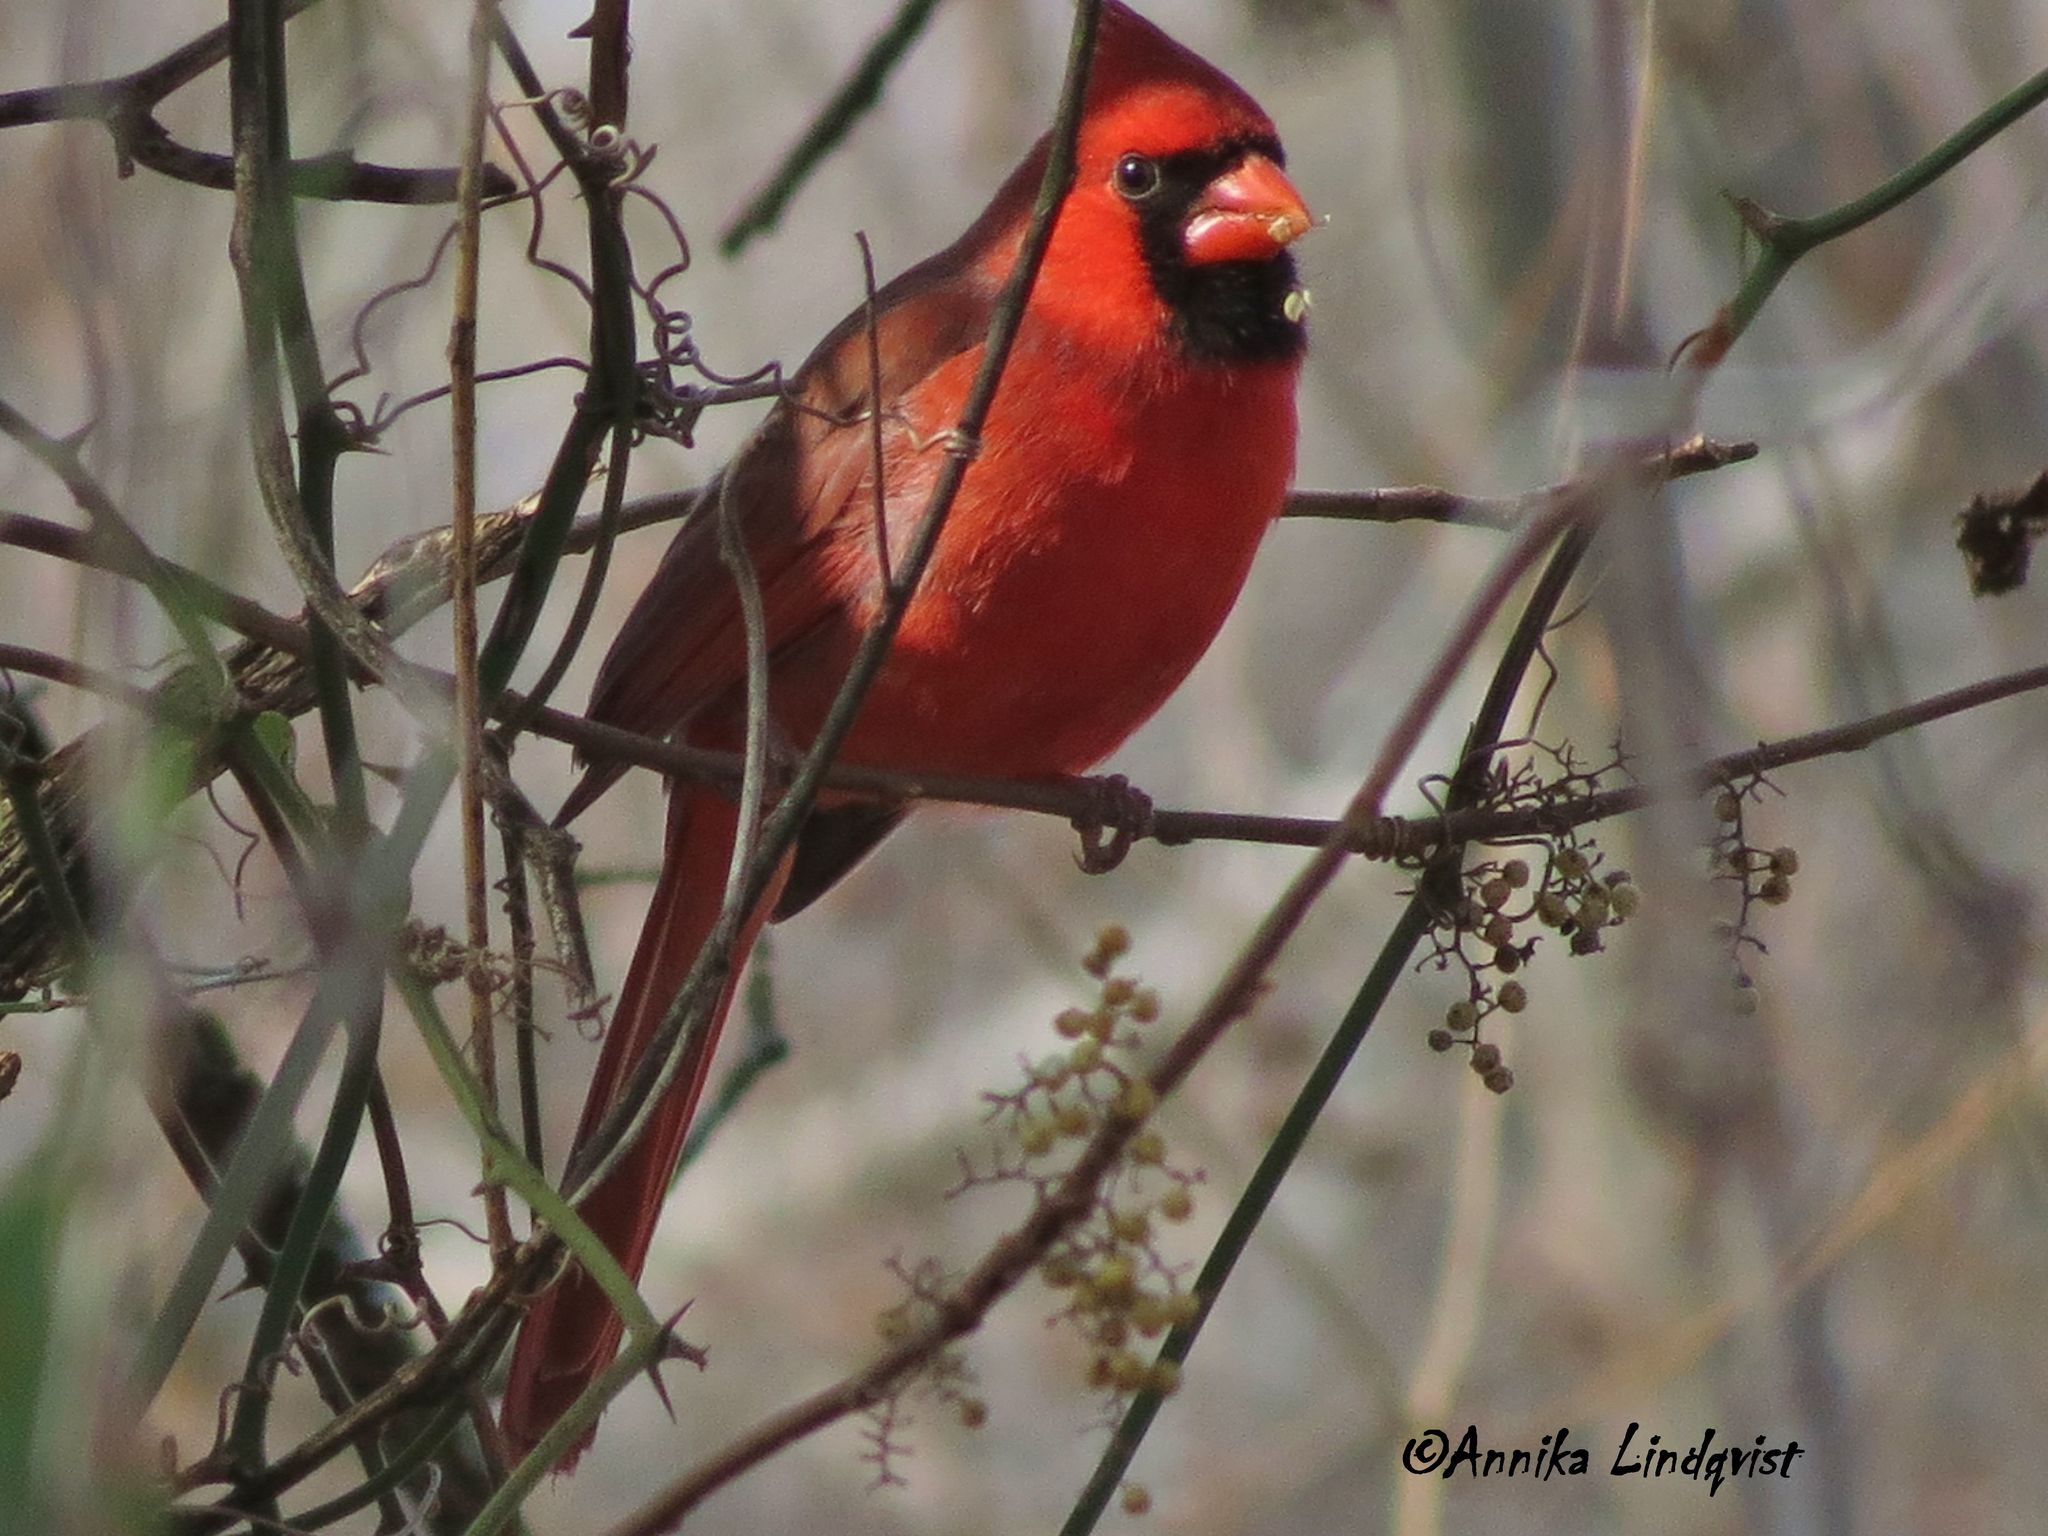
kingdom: Animalia
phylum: Chordata
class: Aves
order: Passeriformes
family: Cardinalidae
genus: Cardinalis
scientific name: Cardinalis cardinalis
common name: Northern cardinal
